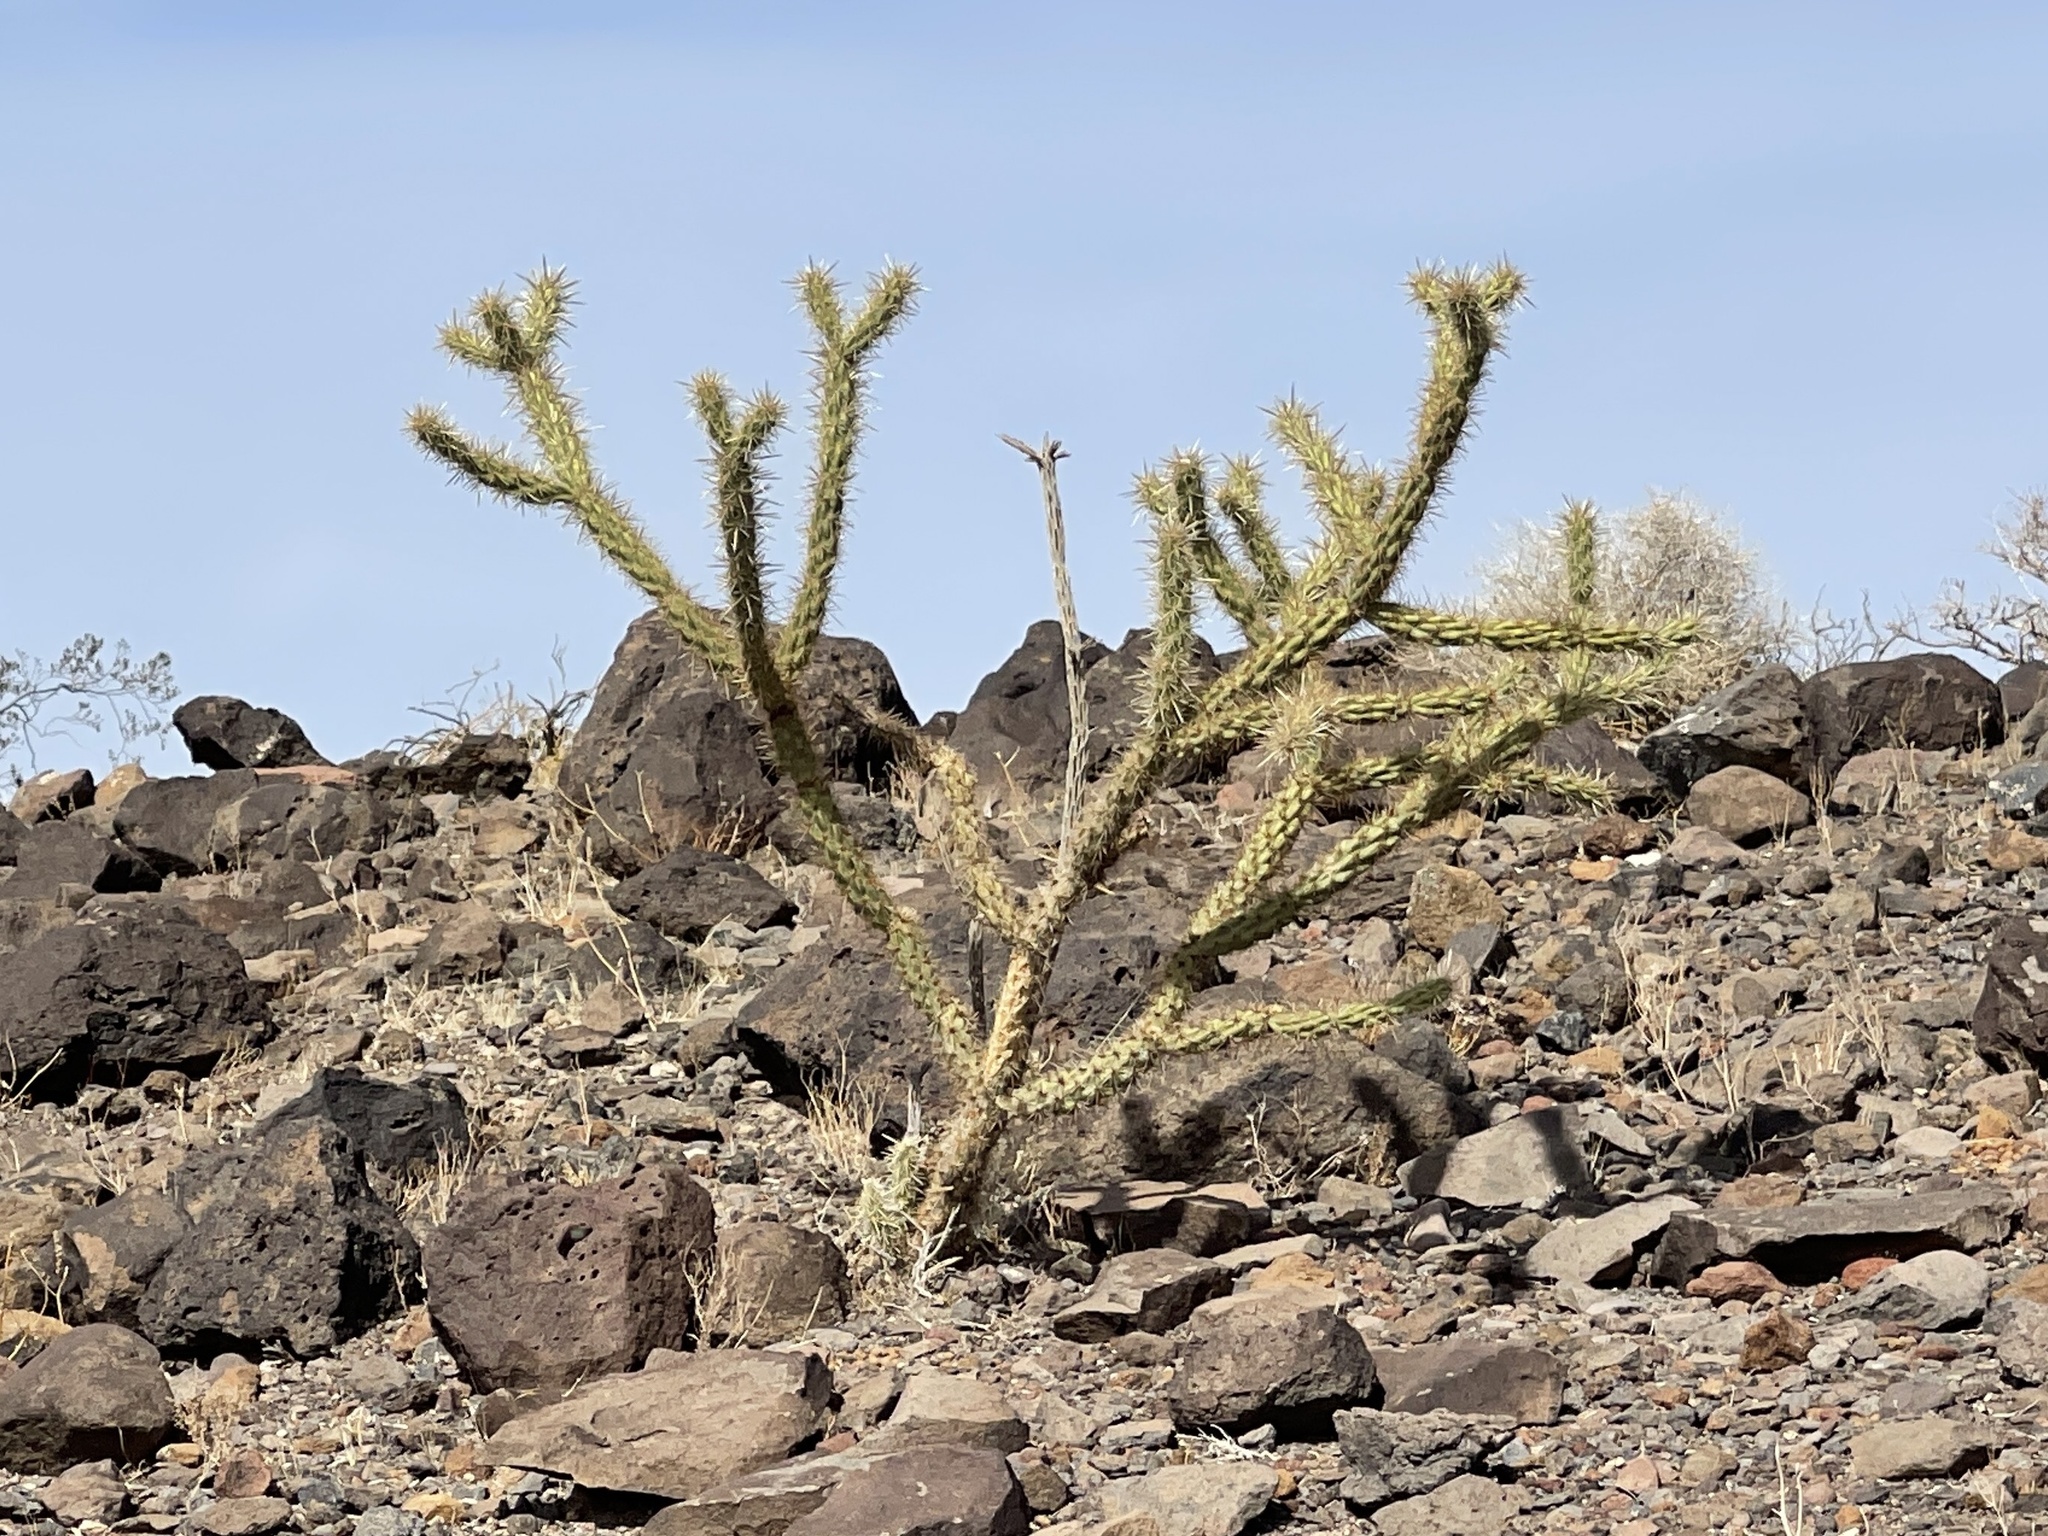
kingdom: Plantae
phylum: Tracheophyta
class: Magnoliopsida
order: Caryophyllales
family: Cactaceae
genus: Cylindropuntia
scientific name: Cylindropuntia acanthocarpa
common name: Buckhorn cholla
